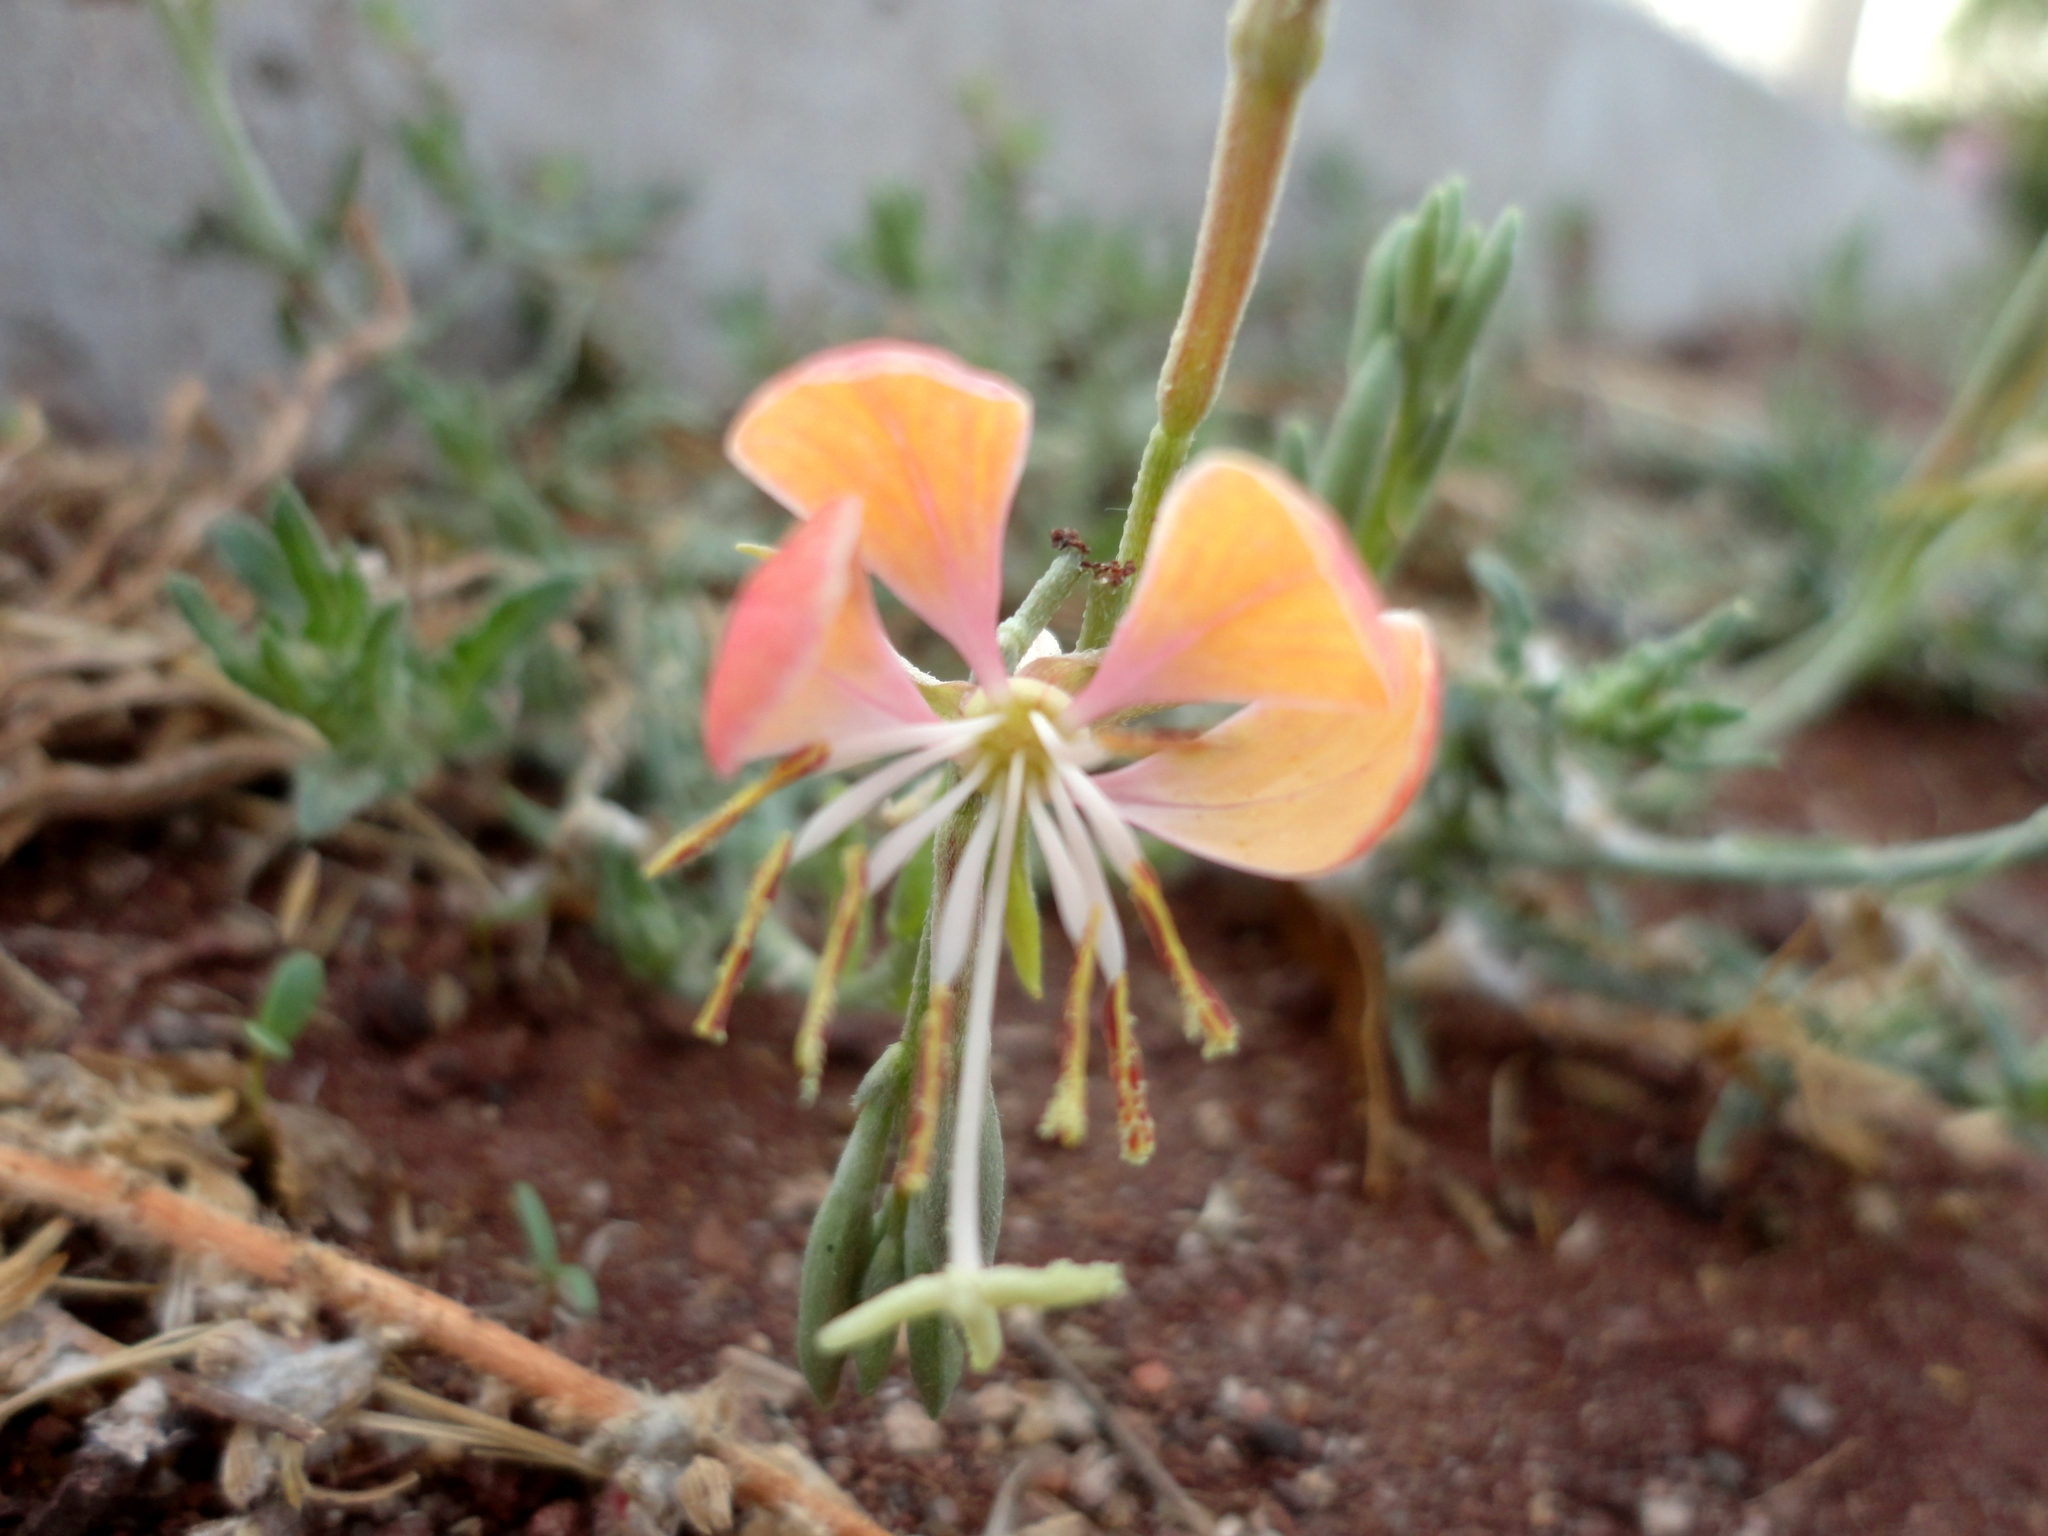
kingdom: Plantae
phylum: Tracheophyta
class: Magnoliopsida
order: Myrtales
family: Onagraceae
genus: Oenothera
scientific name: Oenothera suffrutescens
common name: Scarlet beeblossom
